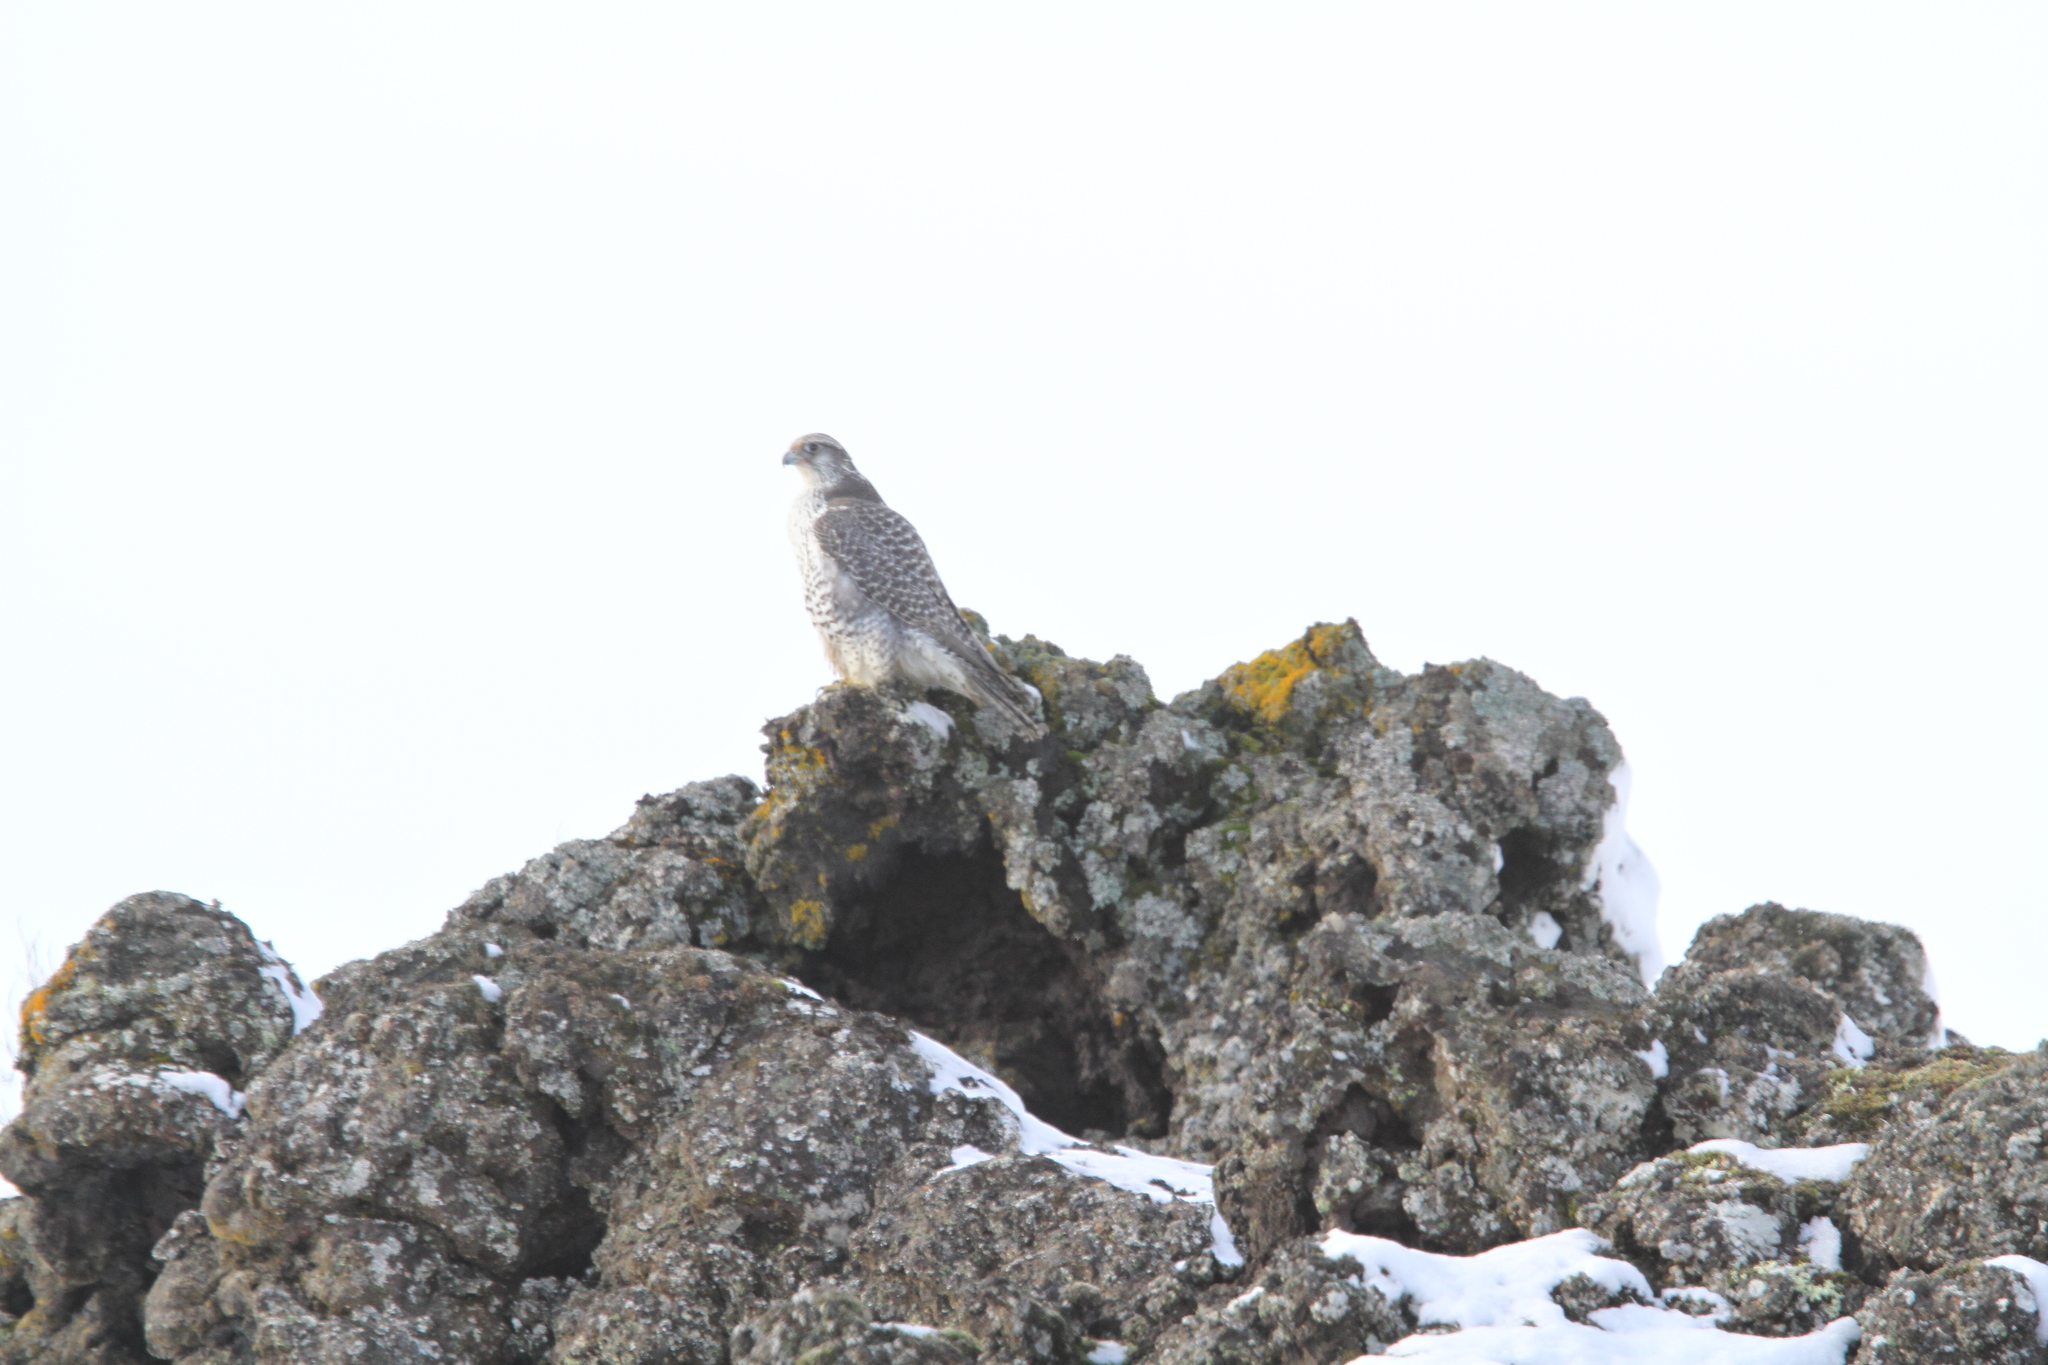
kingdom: Animalia
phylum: Chordata
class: Aves
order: Falconiformes
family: Falconidae
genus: Falco
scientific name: Falco rusticolus
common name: Gyrfalcon
